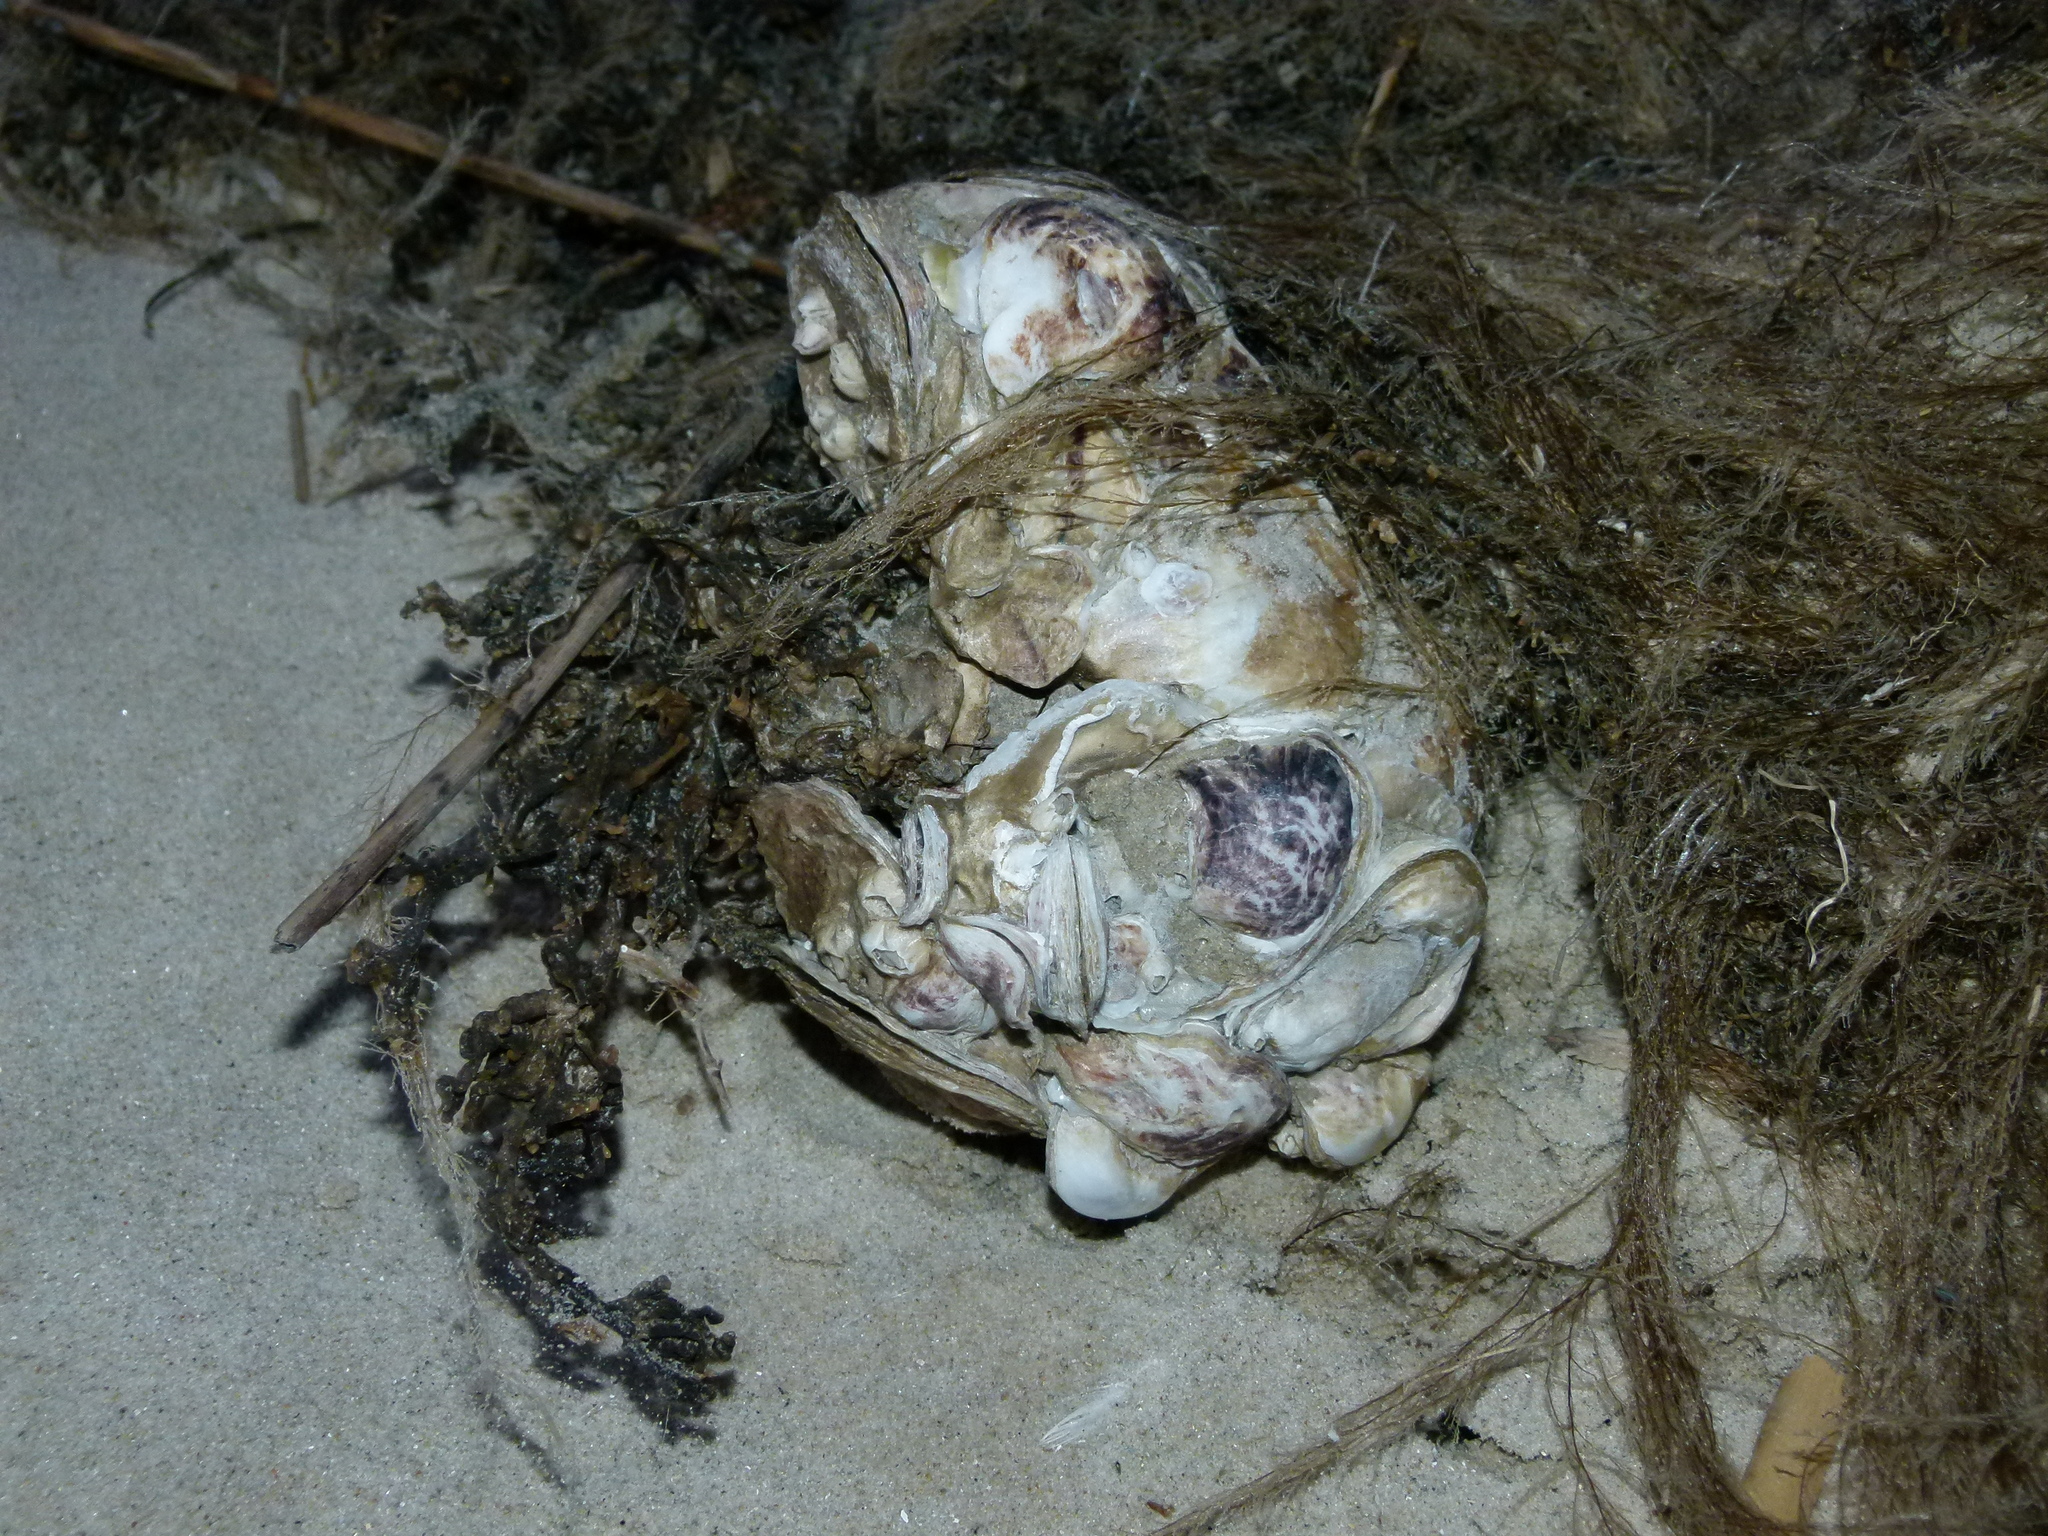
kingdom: Animalia
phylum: Mollusca
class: Bivalvia
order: Ostreida
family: Ostreidae
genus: Crassostrea
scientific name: Crassostrea virginica
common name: American oyster
